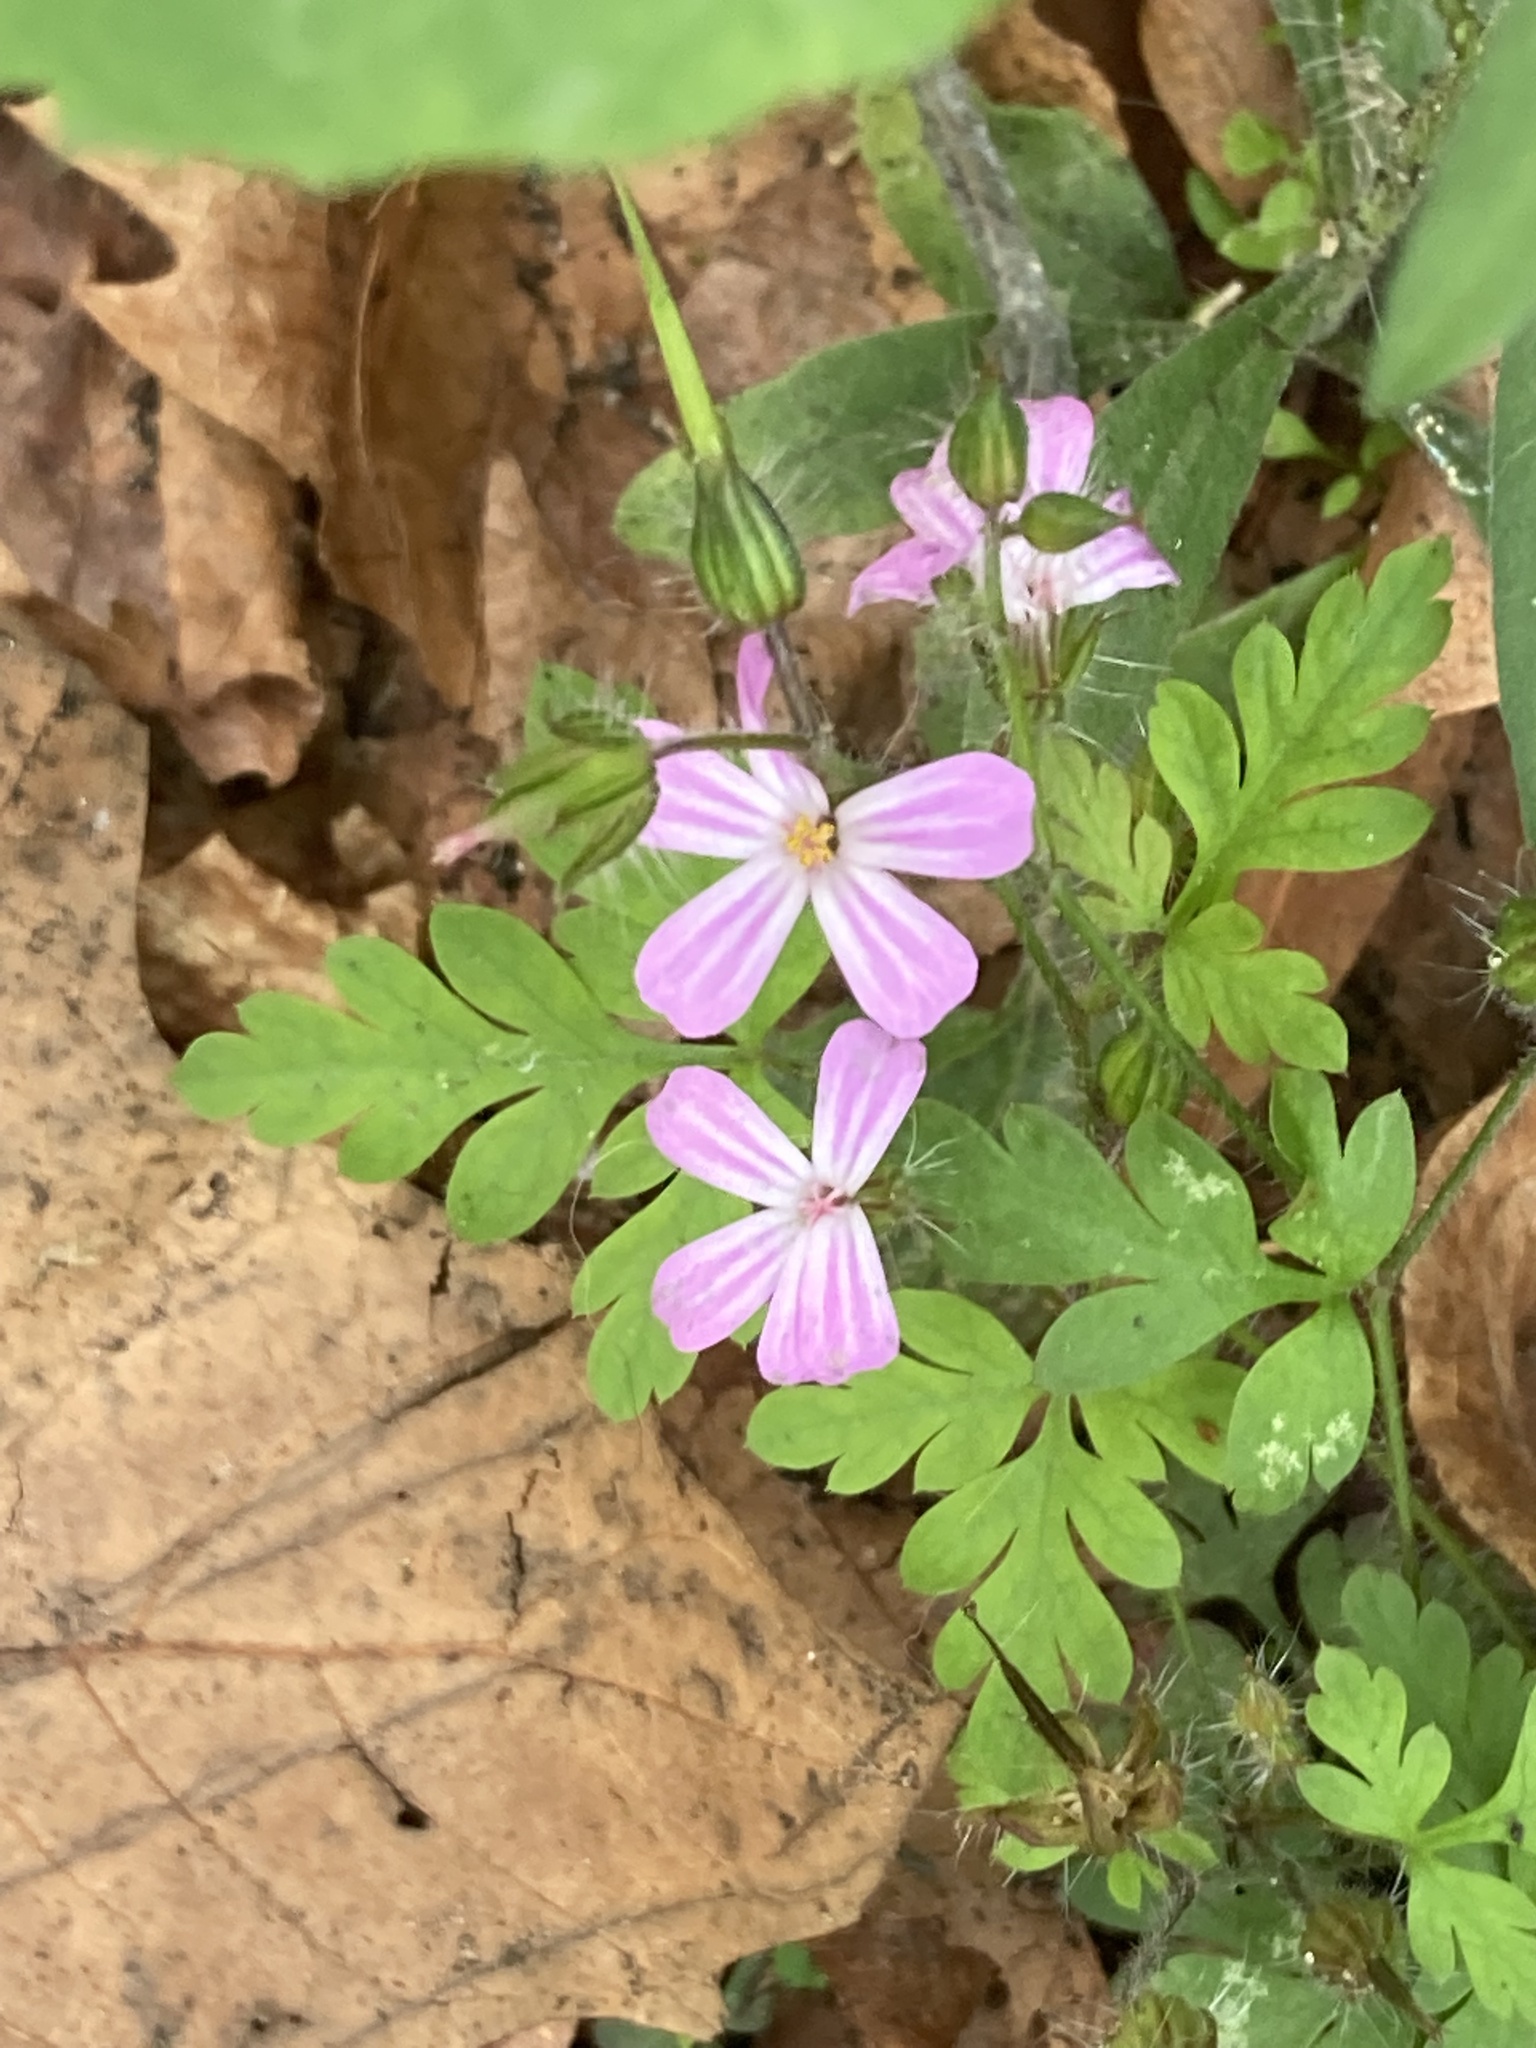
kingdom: Plantae
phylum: Tracheophyta
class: Magnoliopsida
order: Geraniales
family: Geraniaceae
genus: Geranium
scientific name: Geranium robertianum
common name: Herb-robert
